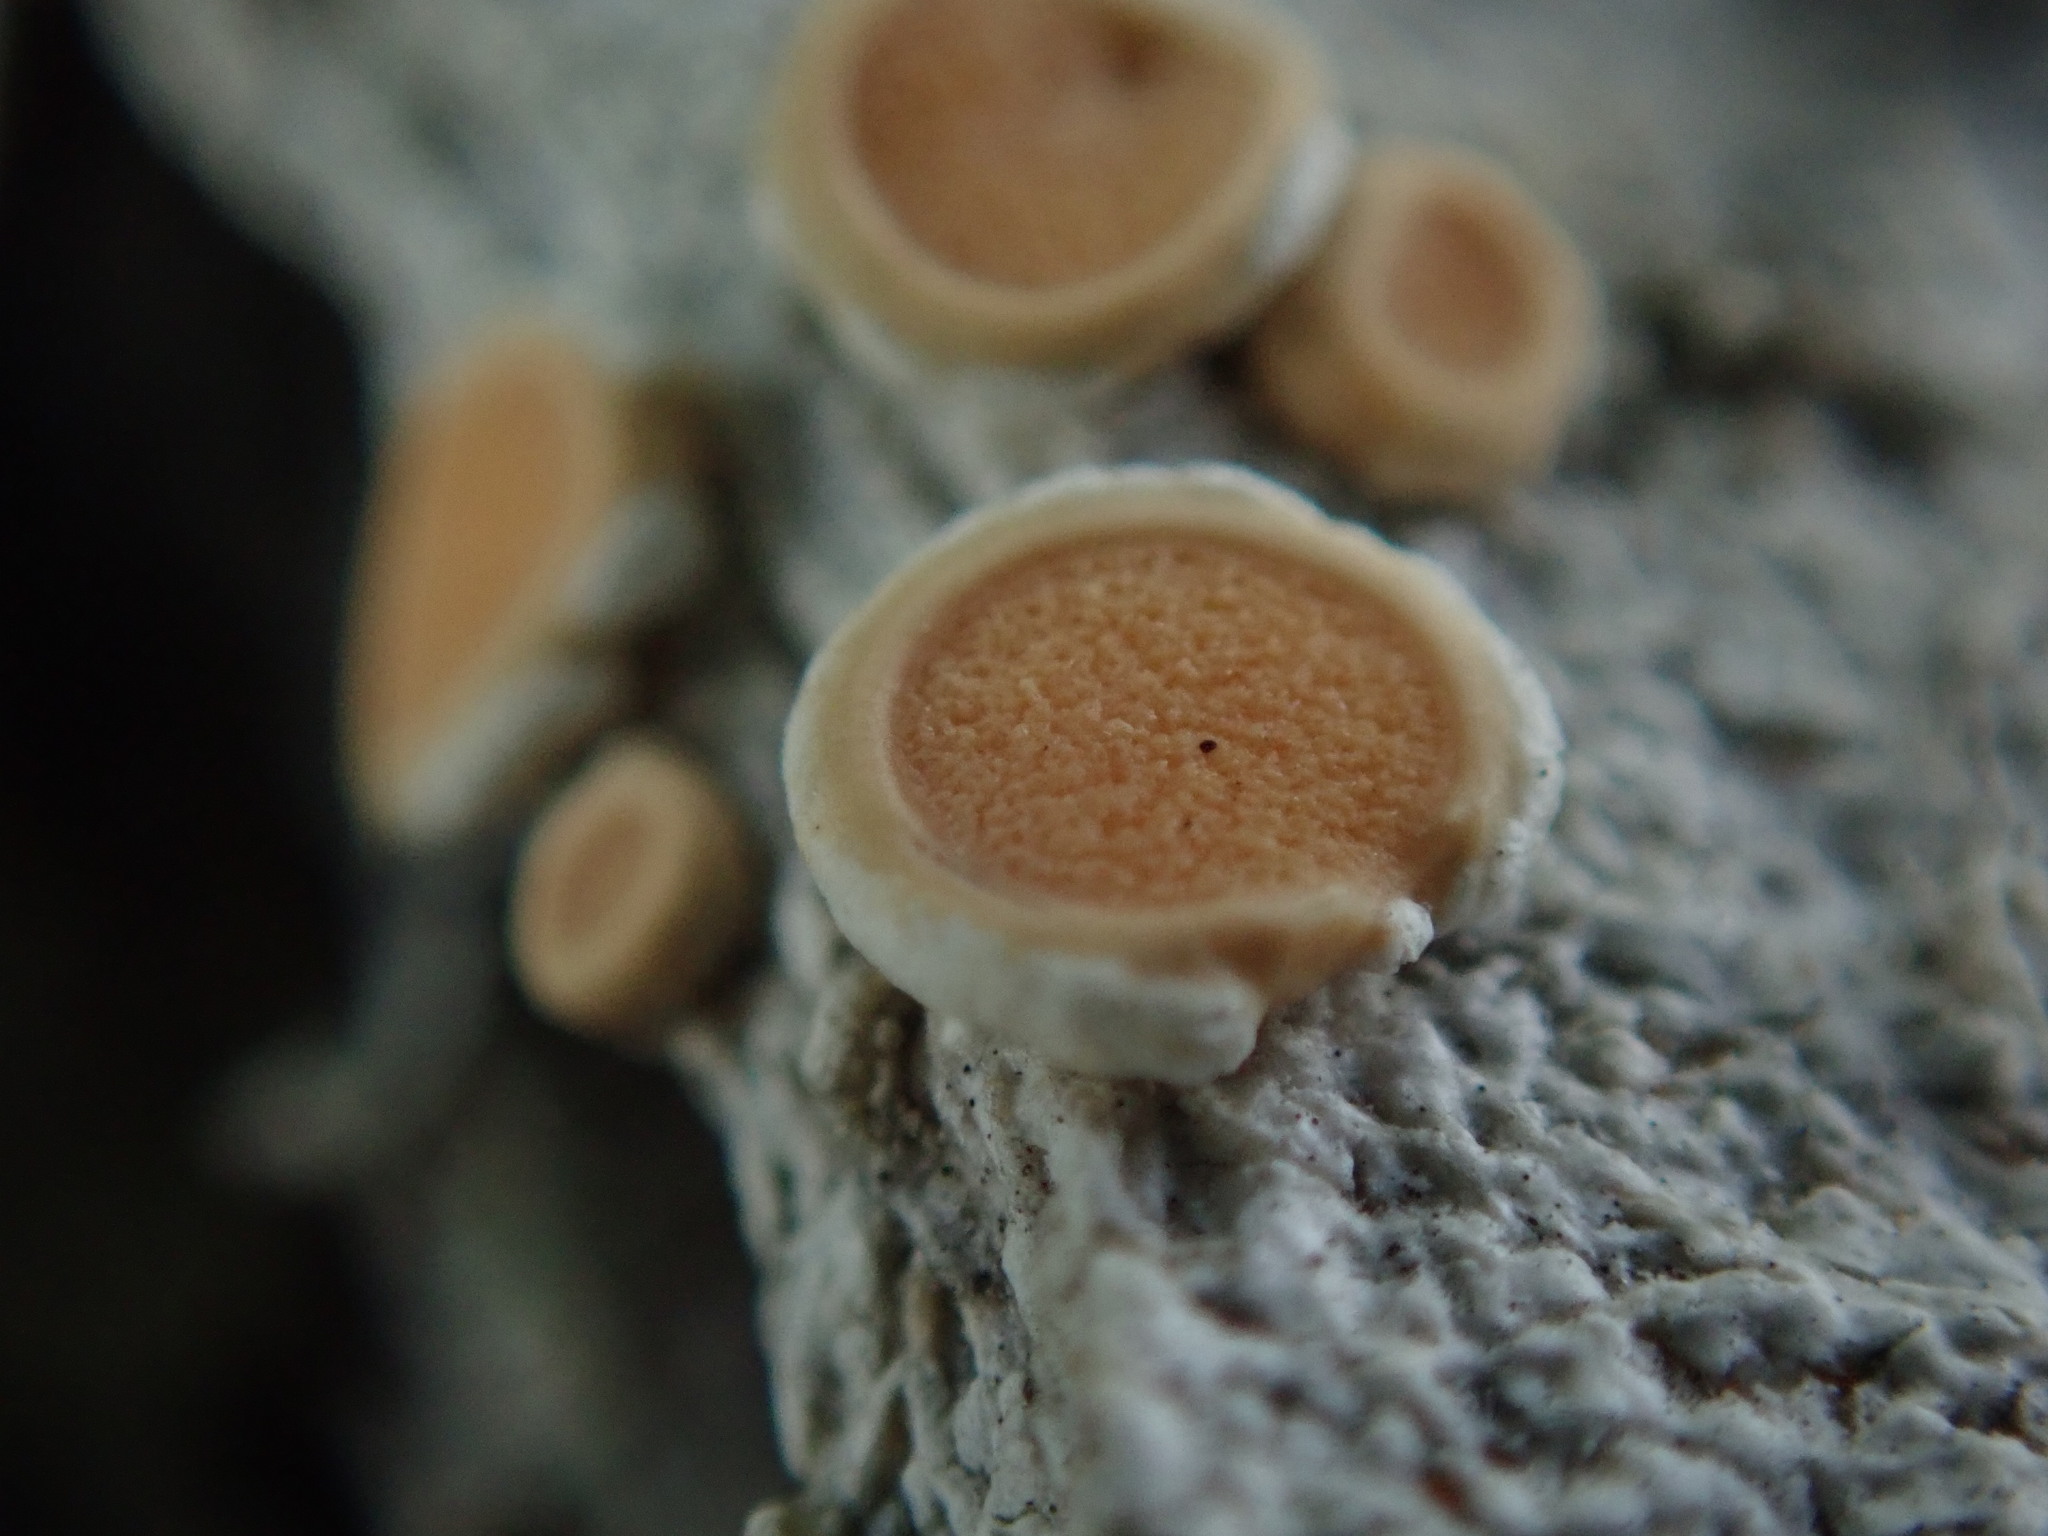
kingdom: Fungi
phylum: Ascomycota
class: Lecanoromycetes
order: Pertusariales
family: Ochrolechiaceae
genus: Ochrolechia
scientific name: Ochrolechia oregonensis
